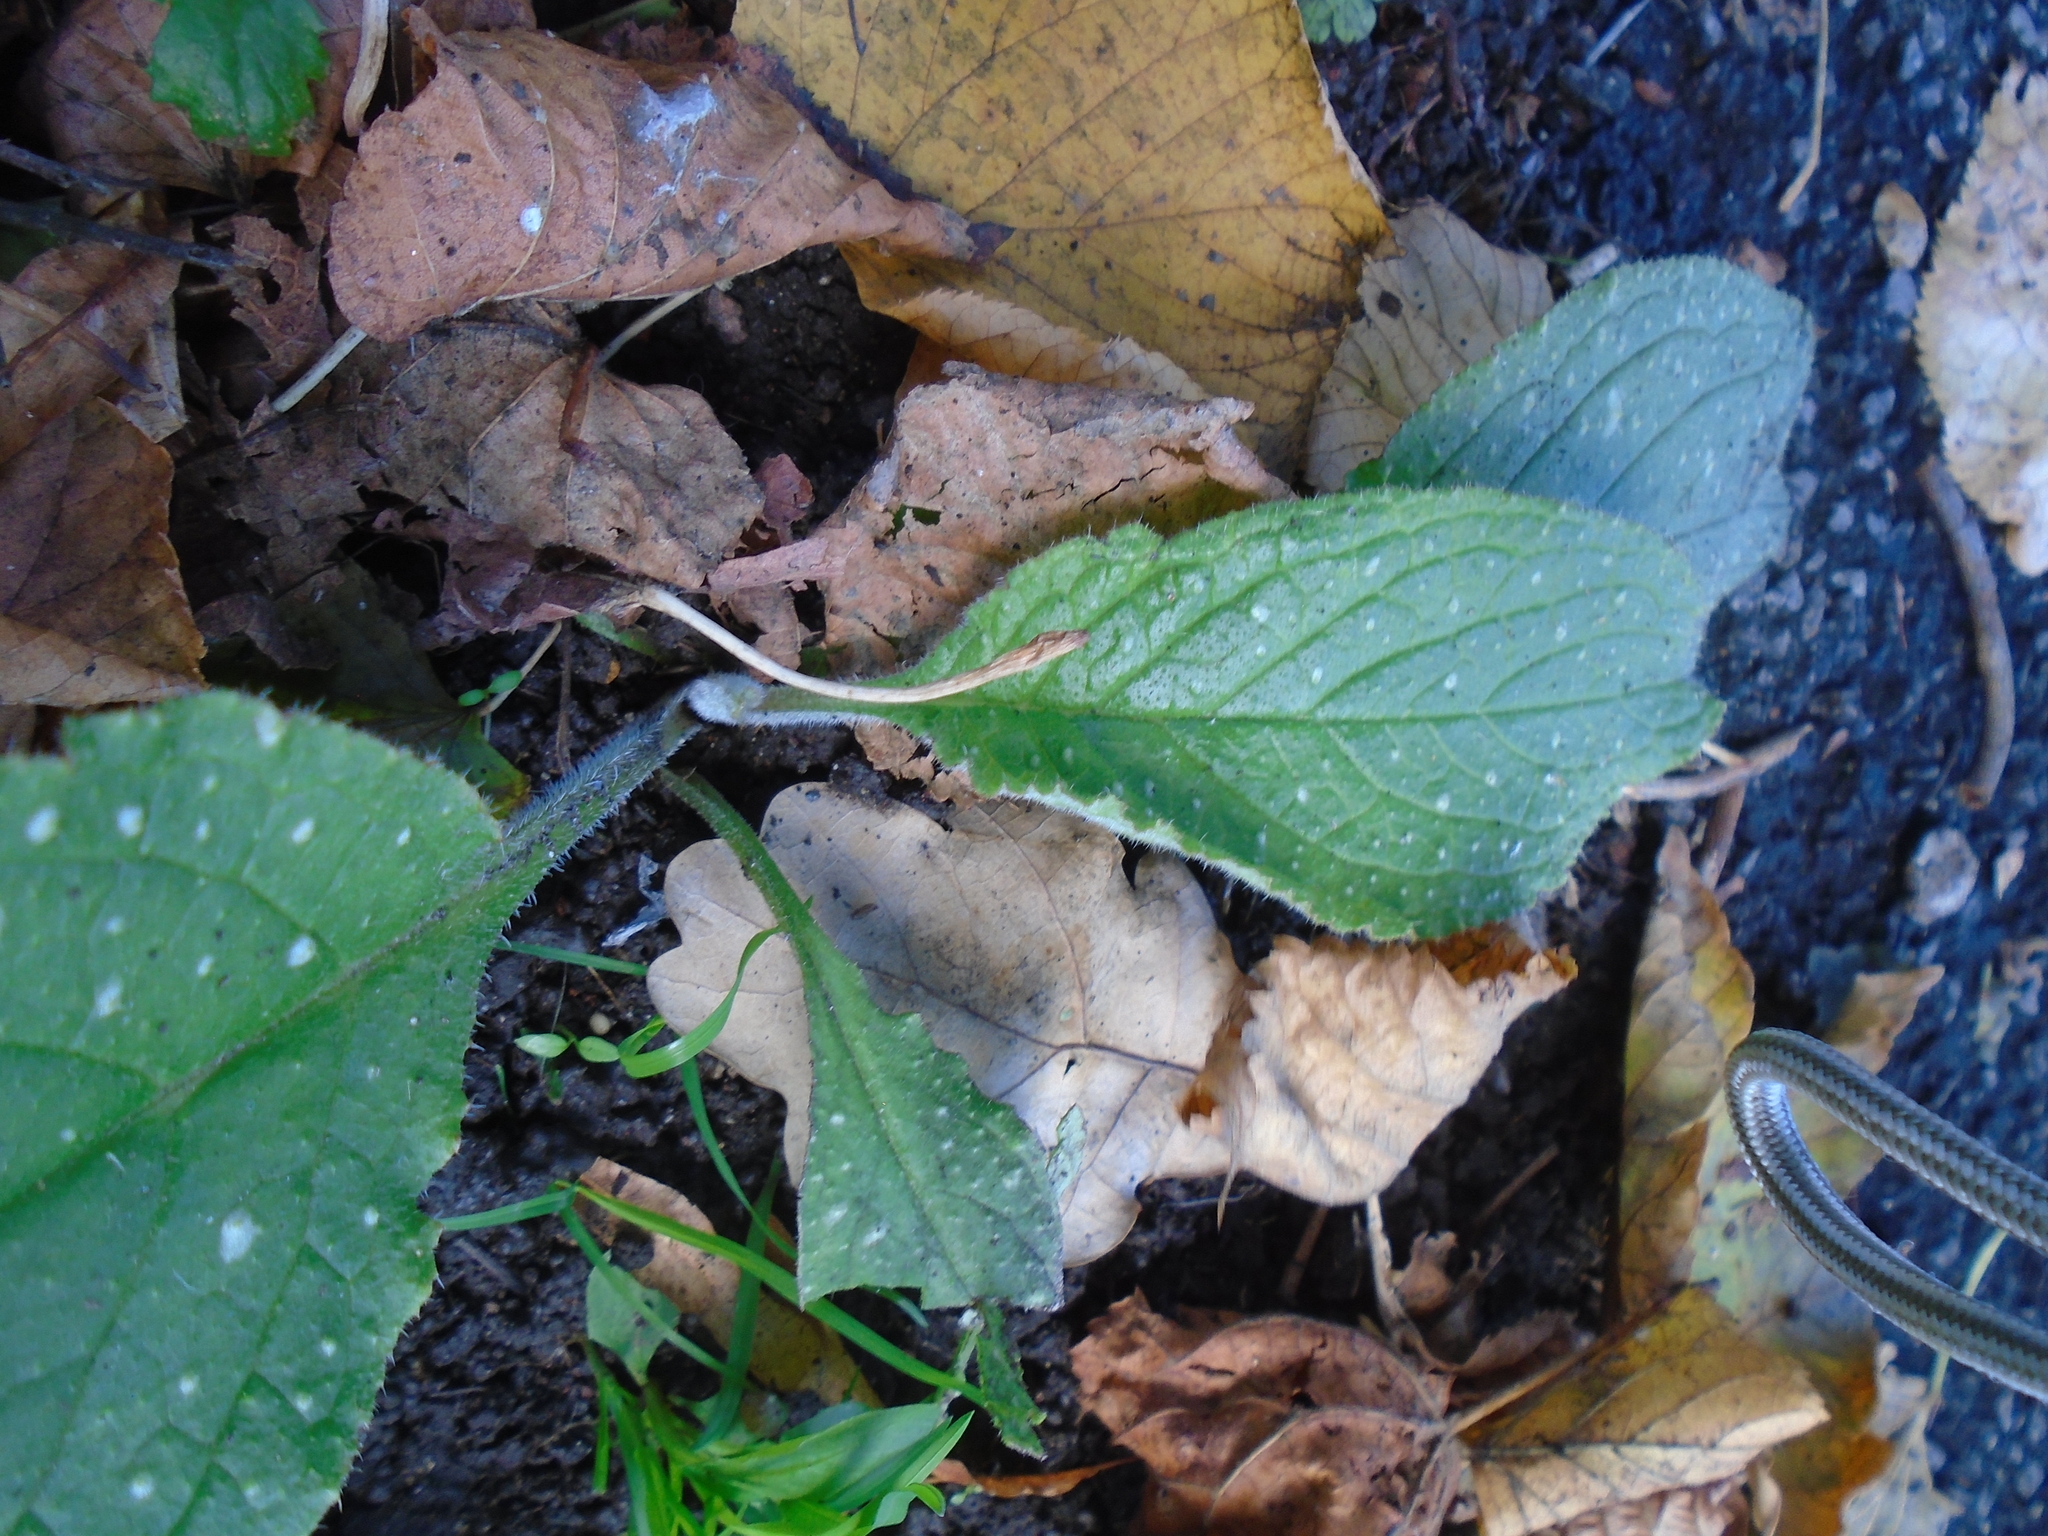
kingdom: Plantae
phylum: Tracheophyta
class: Magnoliopsida
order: Boraginales
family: Boraginaceae
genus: Pentaglottis
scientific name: Pentaglottis sempervirens
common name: Green alkanet
